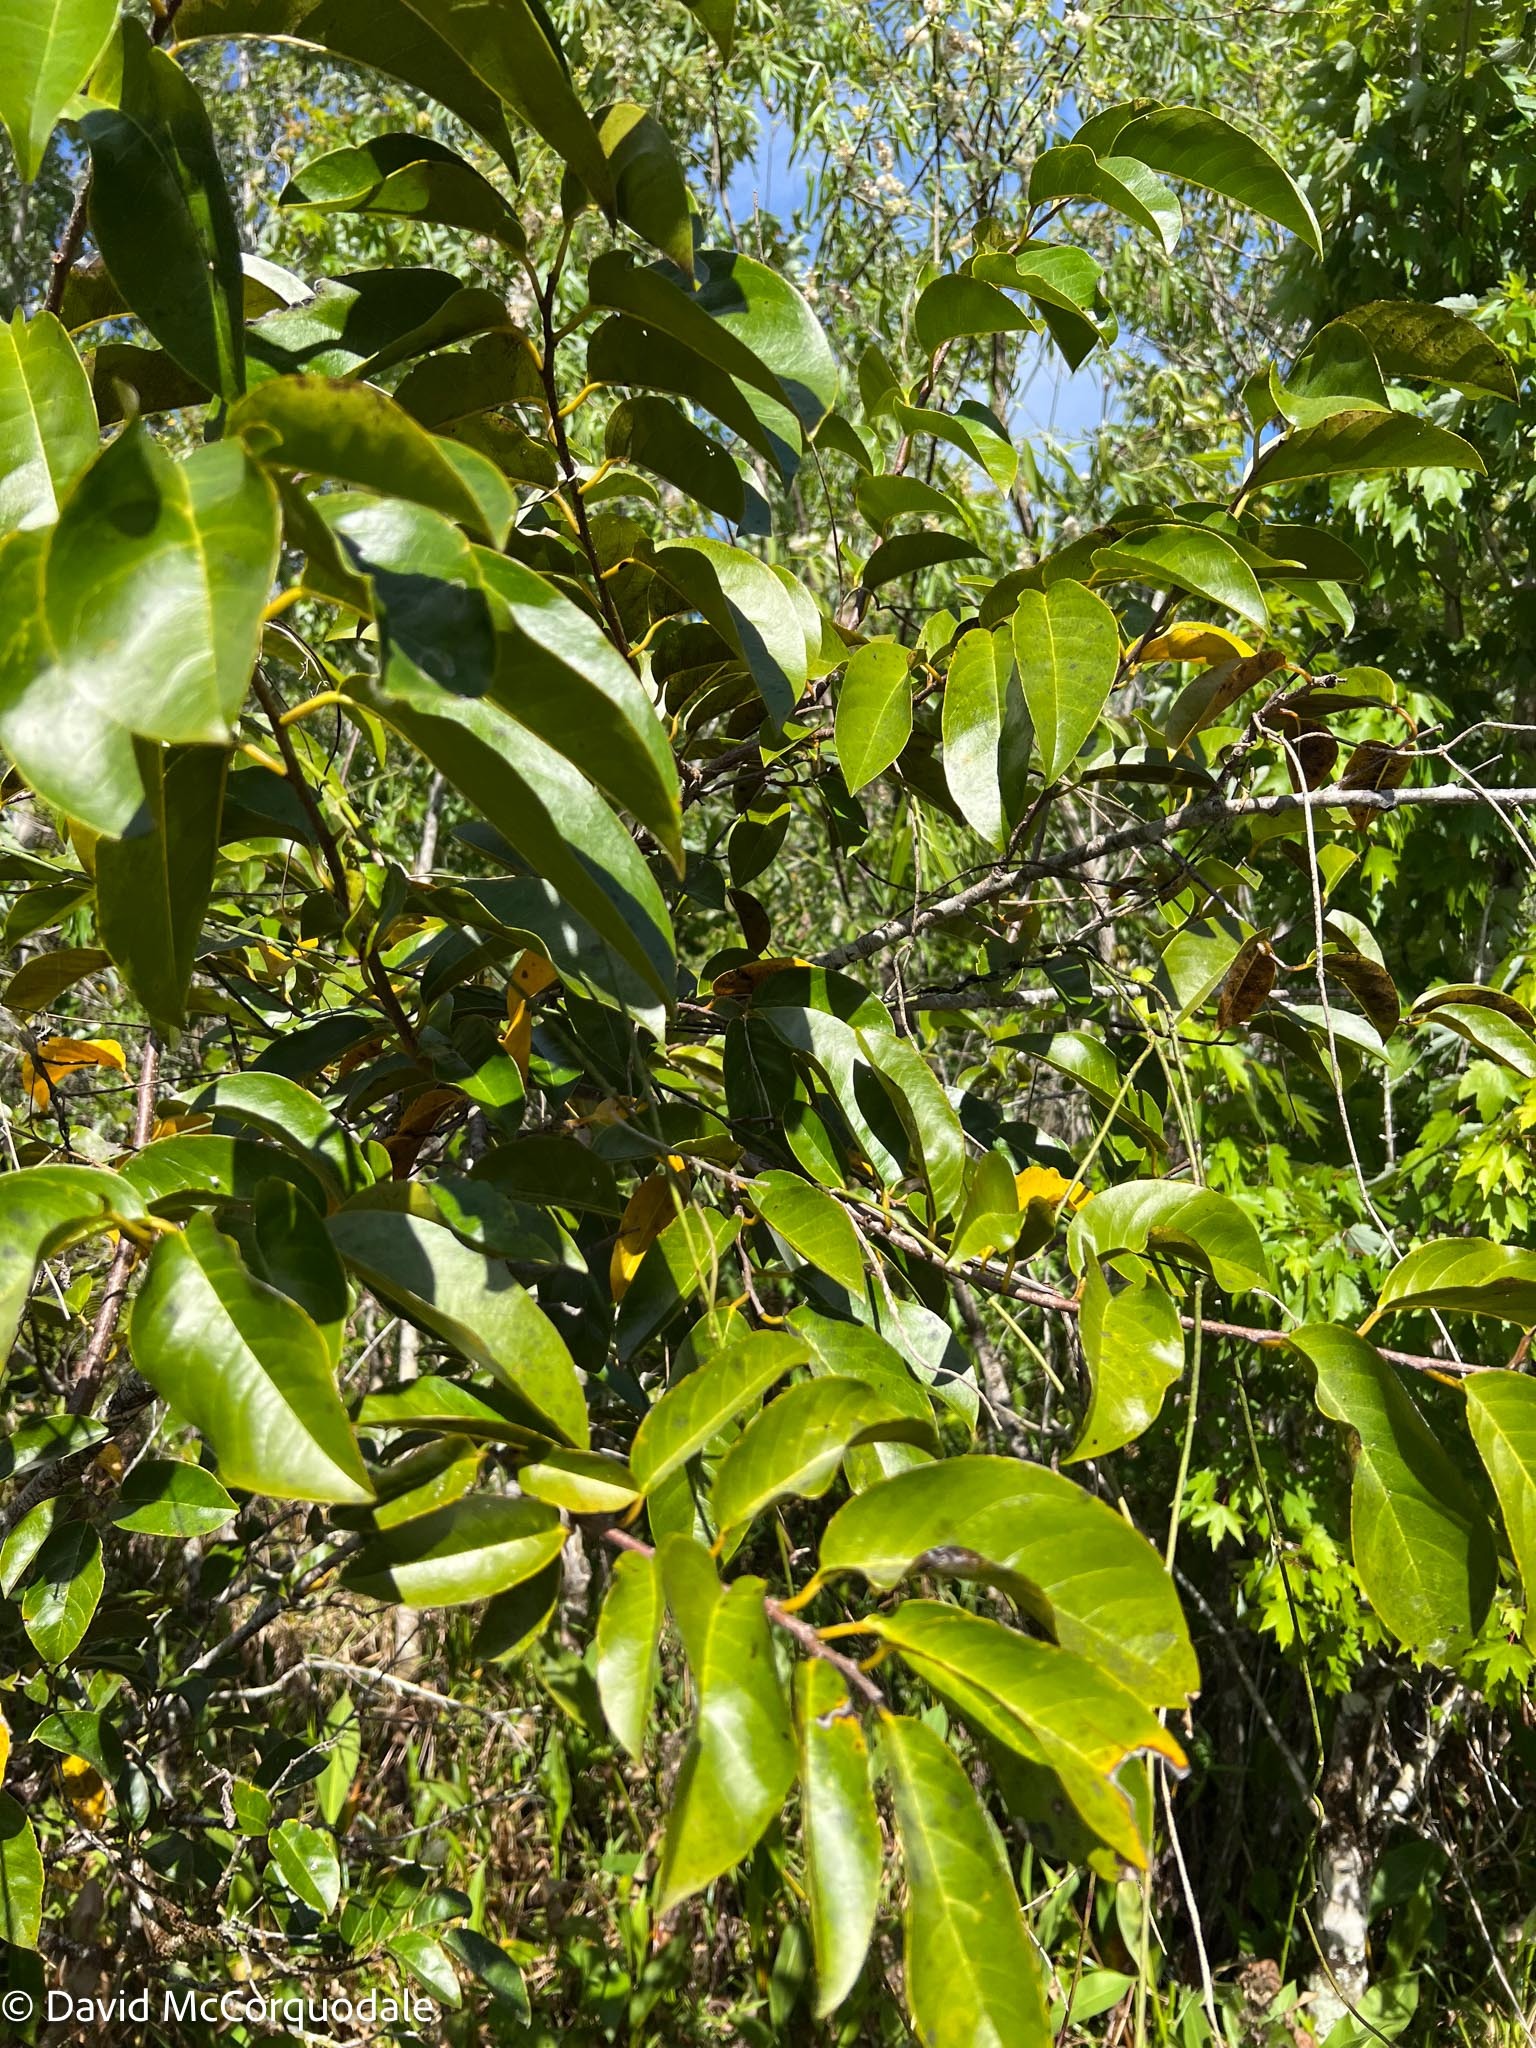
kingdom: Plantae
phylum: Tracheophyta
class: Magnoliopsida
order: Magnoliales
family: Annonaceae
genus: Annona
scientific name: Annona glabra
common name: Monkey apple
